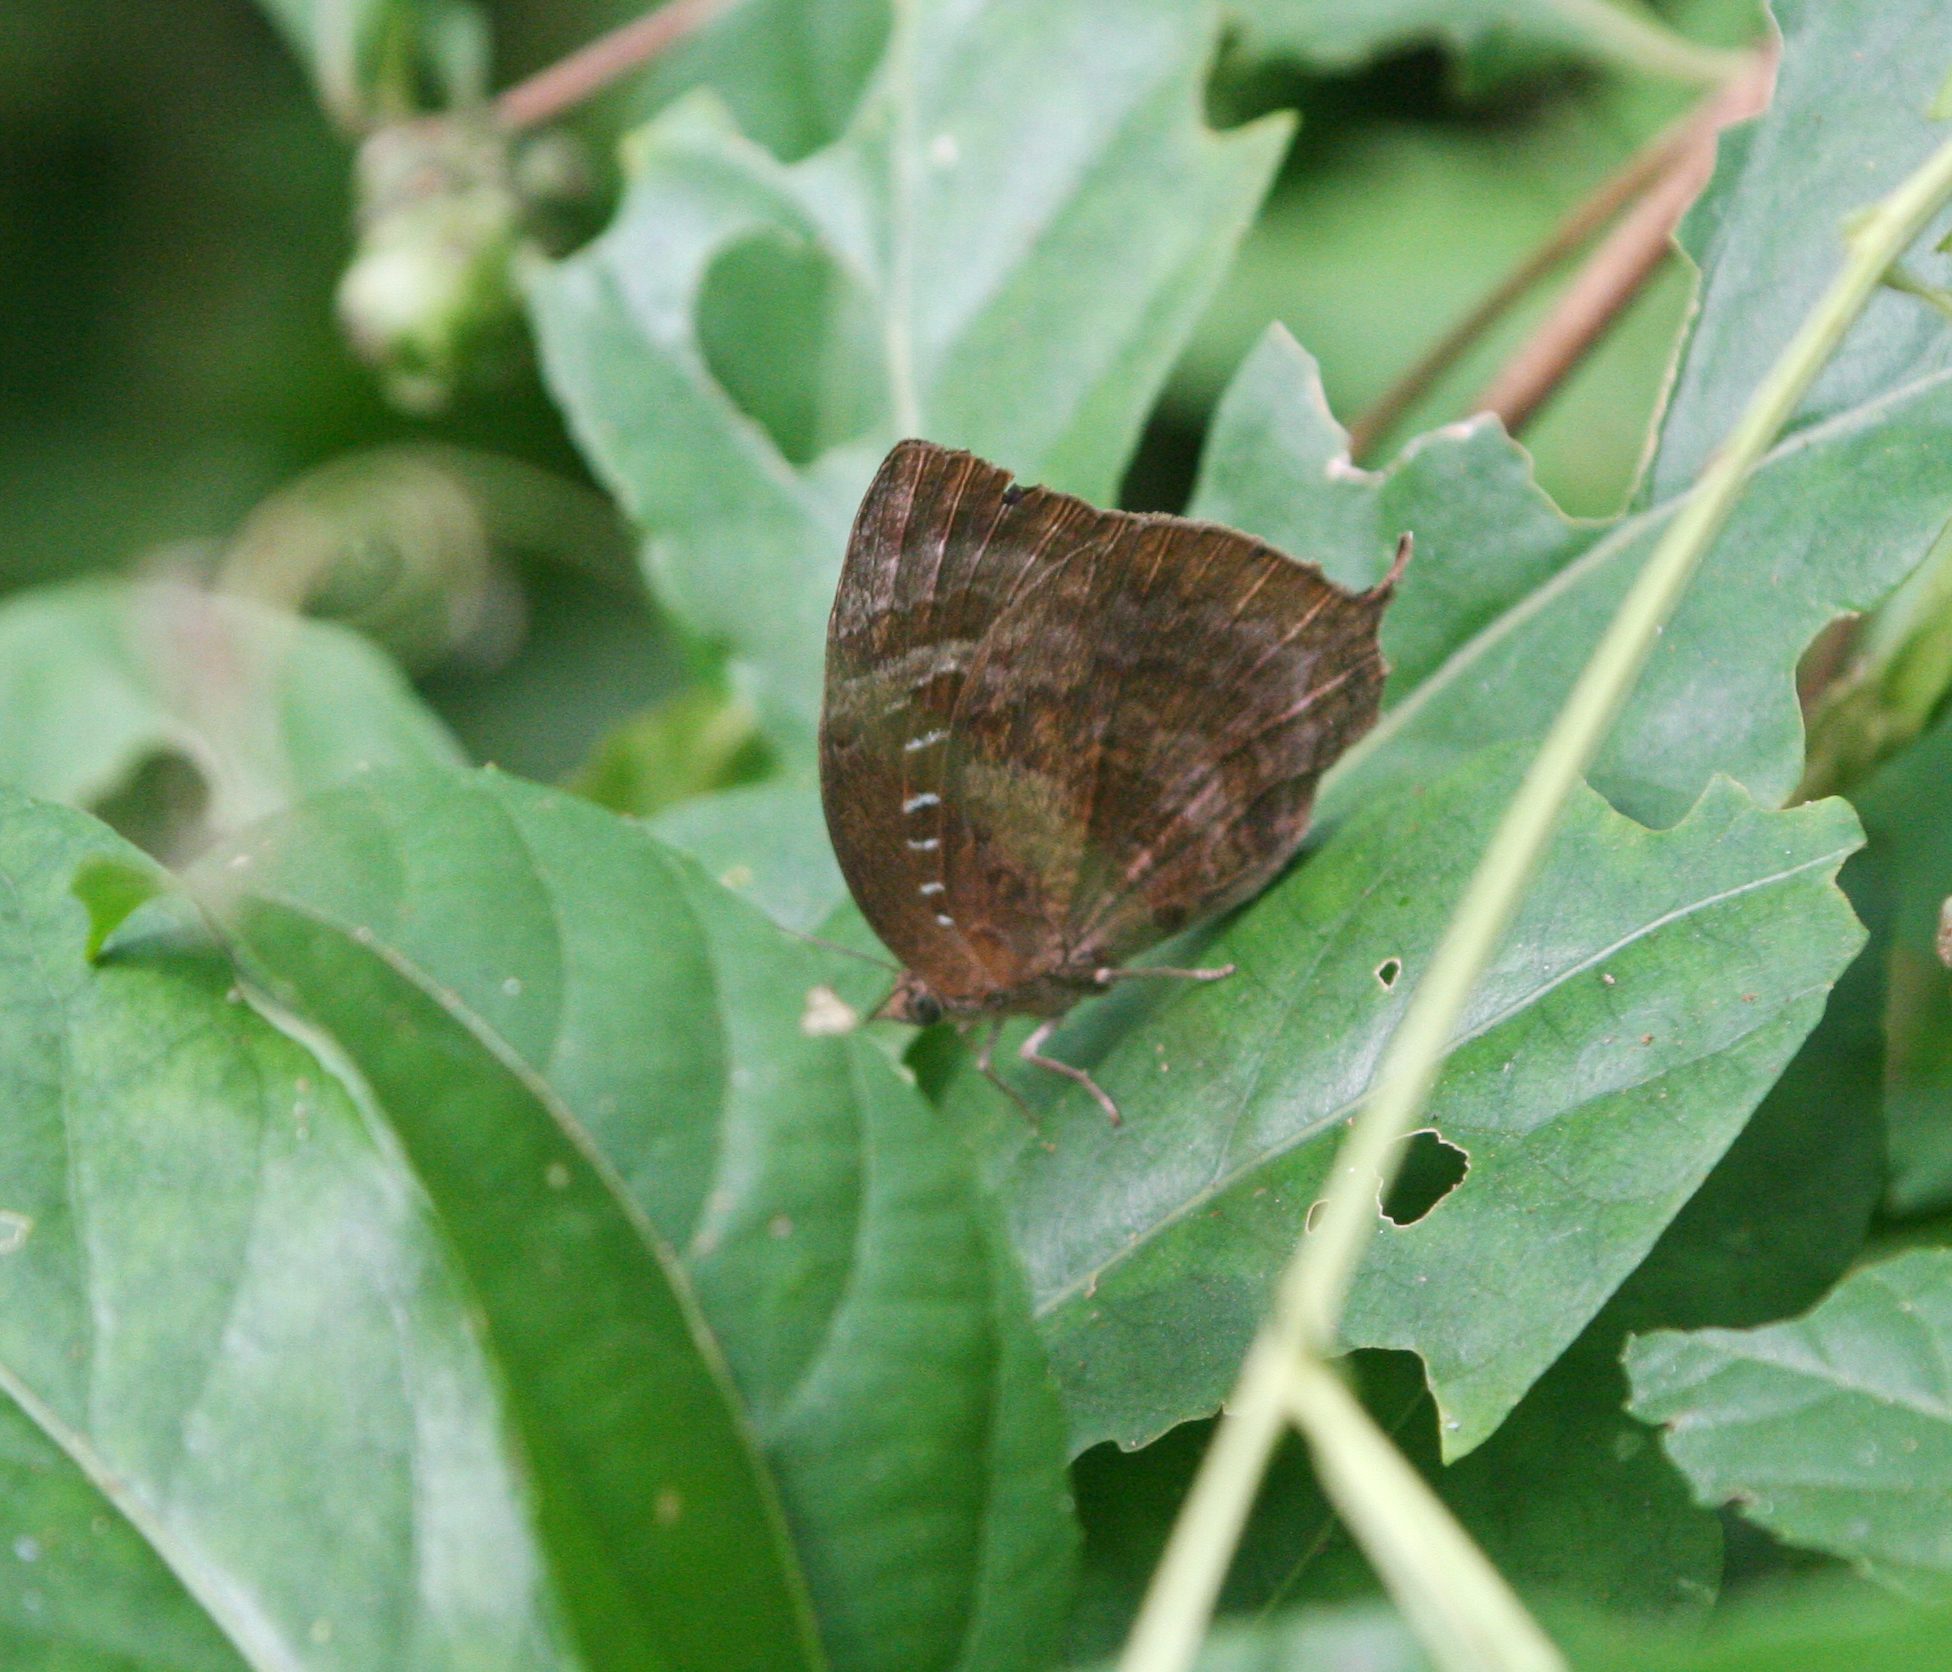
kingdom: Animalia
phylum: Arthropoda
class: Insecta
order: Lepidoptera
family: Lycaenidae
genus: Arhopala
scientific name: Arhopala centaurus
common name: Dull oak-blue
